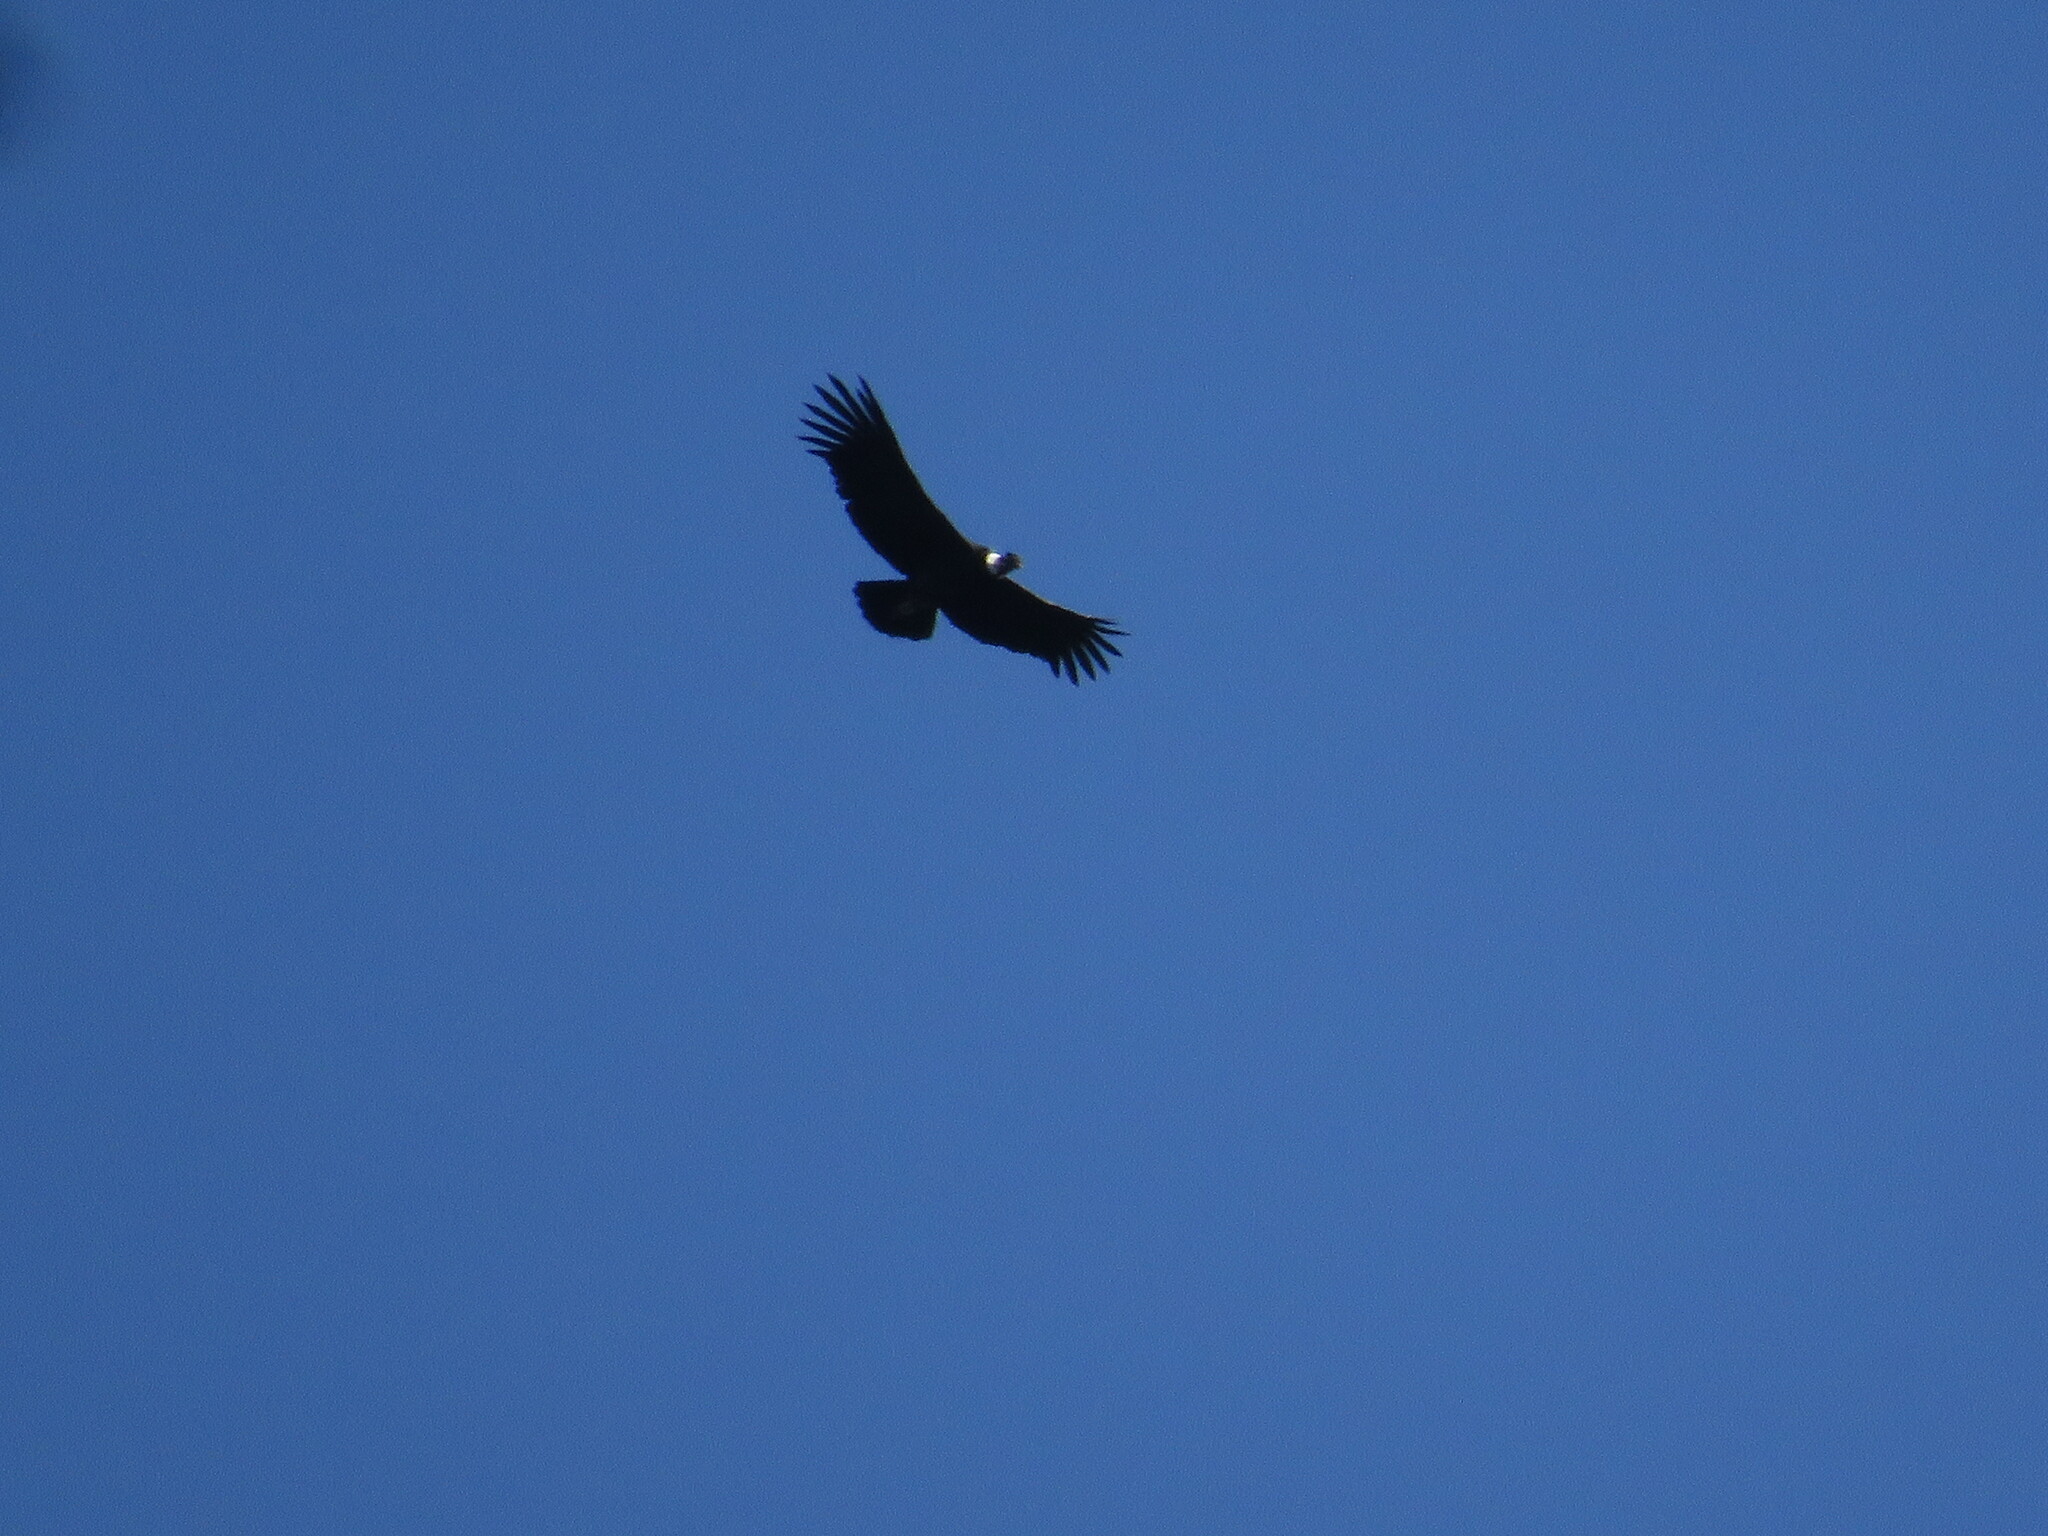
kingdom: Animalia
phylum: Chordata
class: Aves
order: Accipitriformes
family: Cathartidae
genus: Vultur
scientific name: Vultur gryphus
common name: Andean condor
